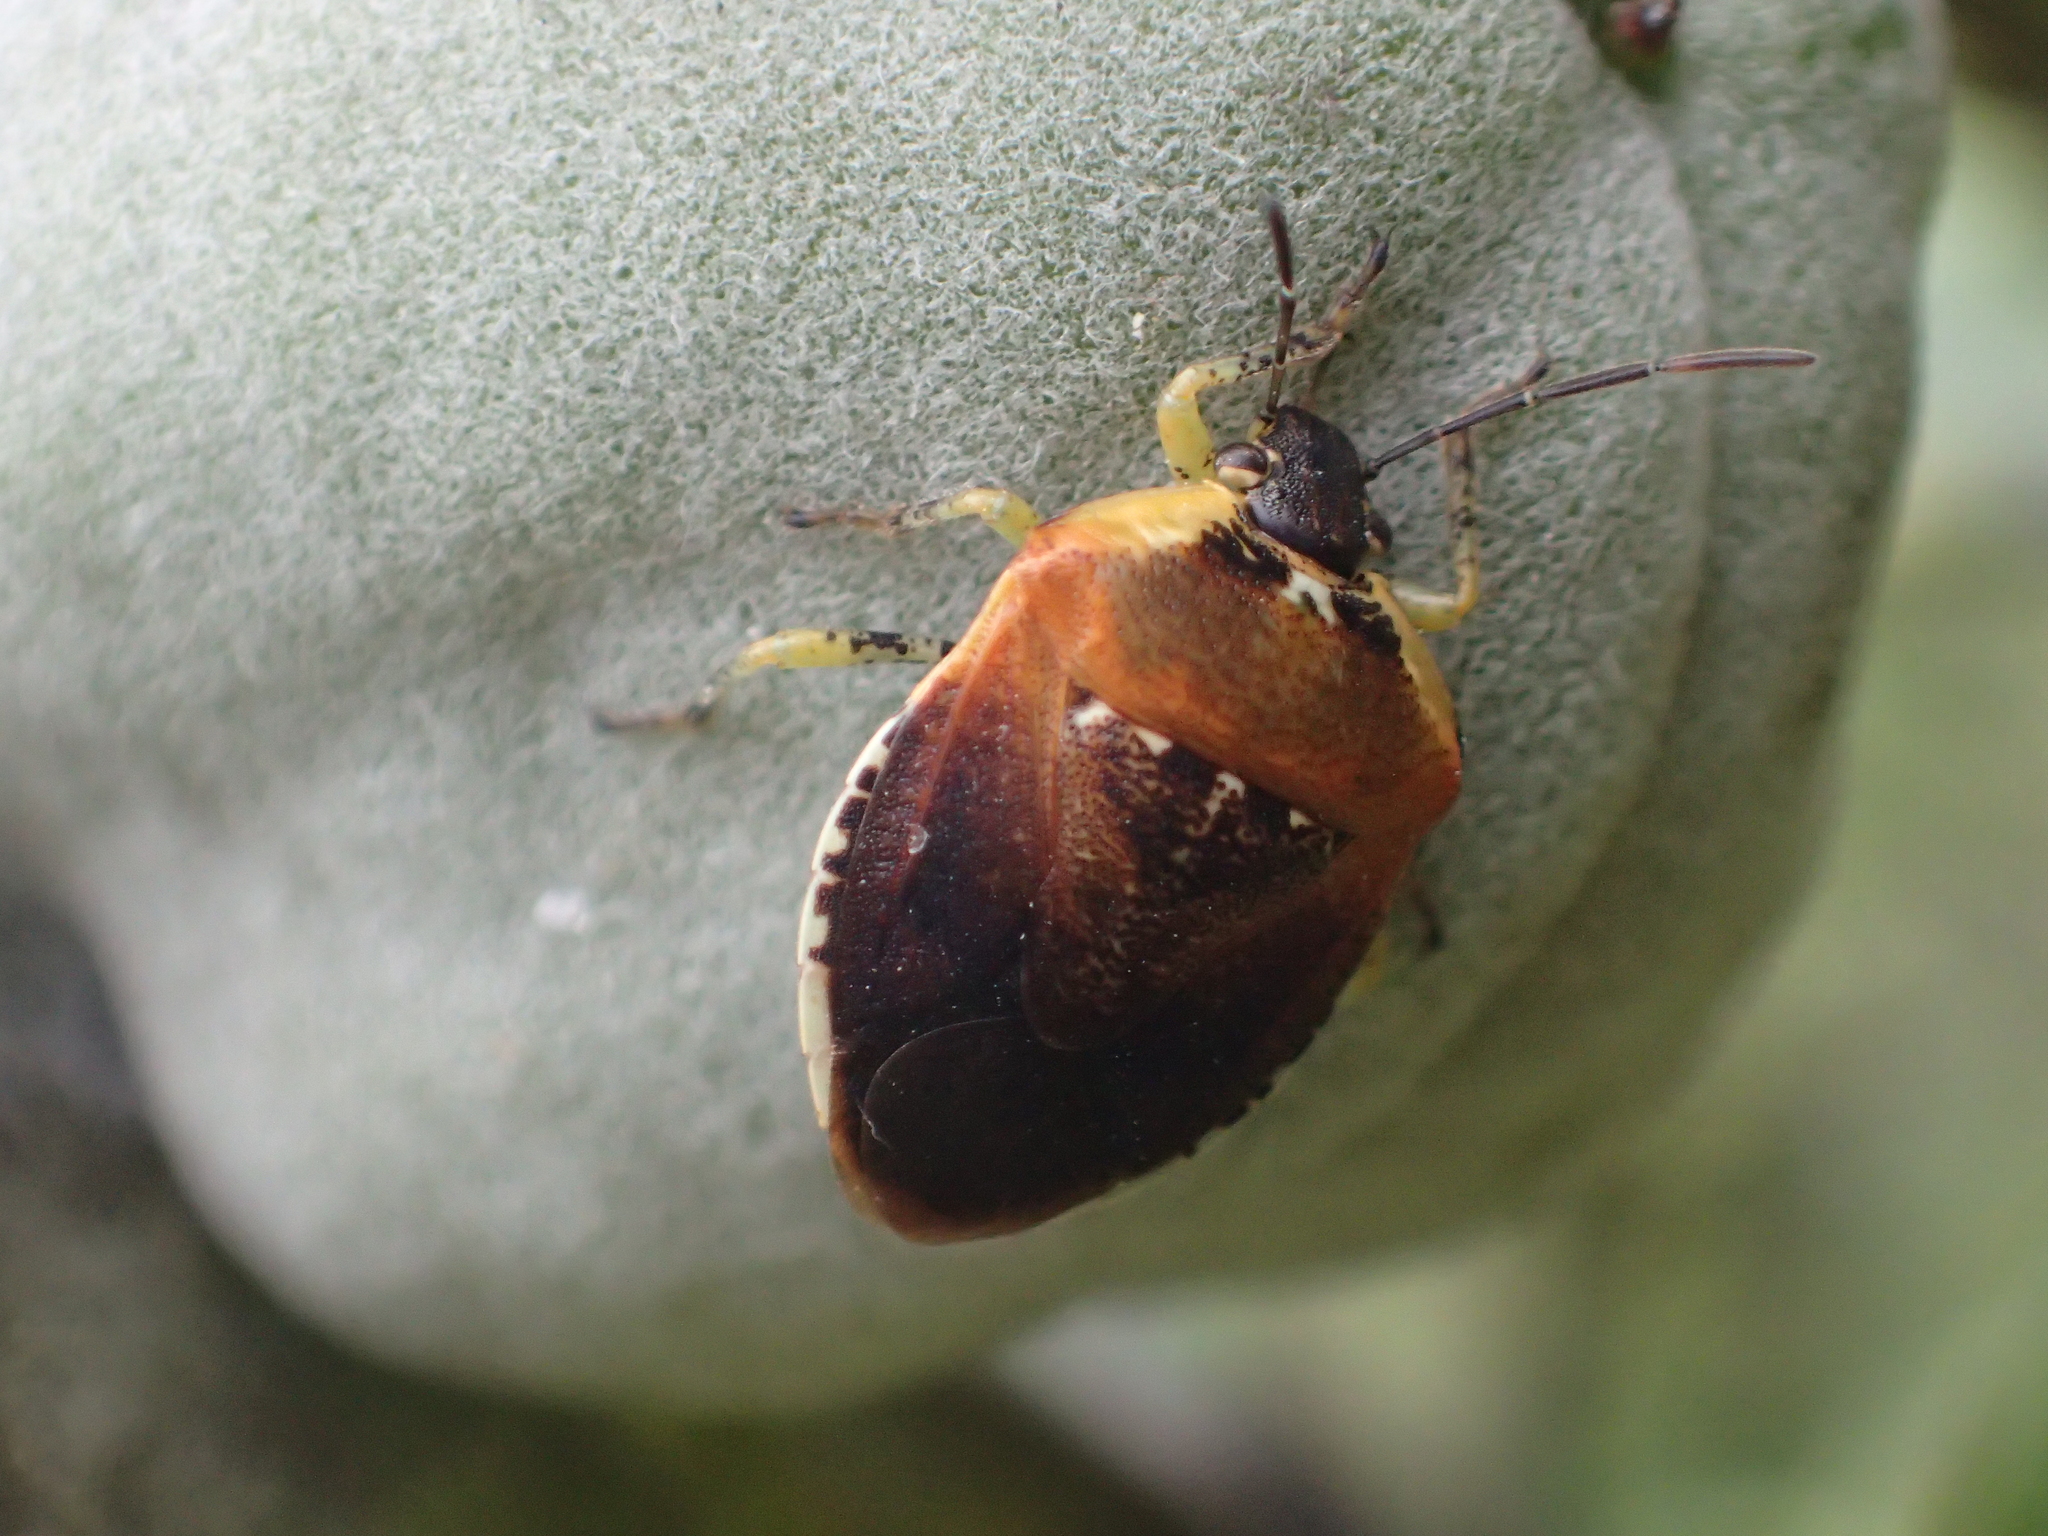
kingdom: Animalia
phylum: Arthropoda
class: Insecta
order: Hemiptera
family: Pentatomidae
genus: Monteithiella
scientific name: Monteithiella
